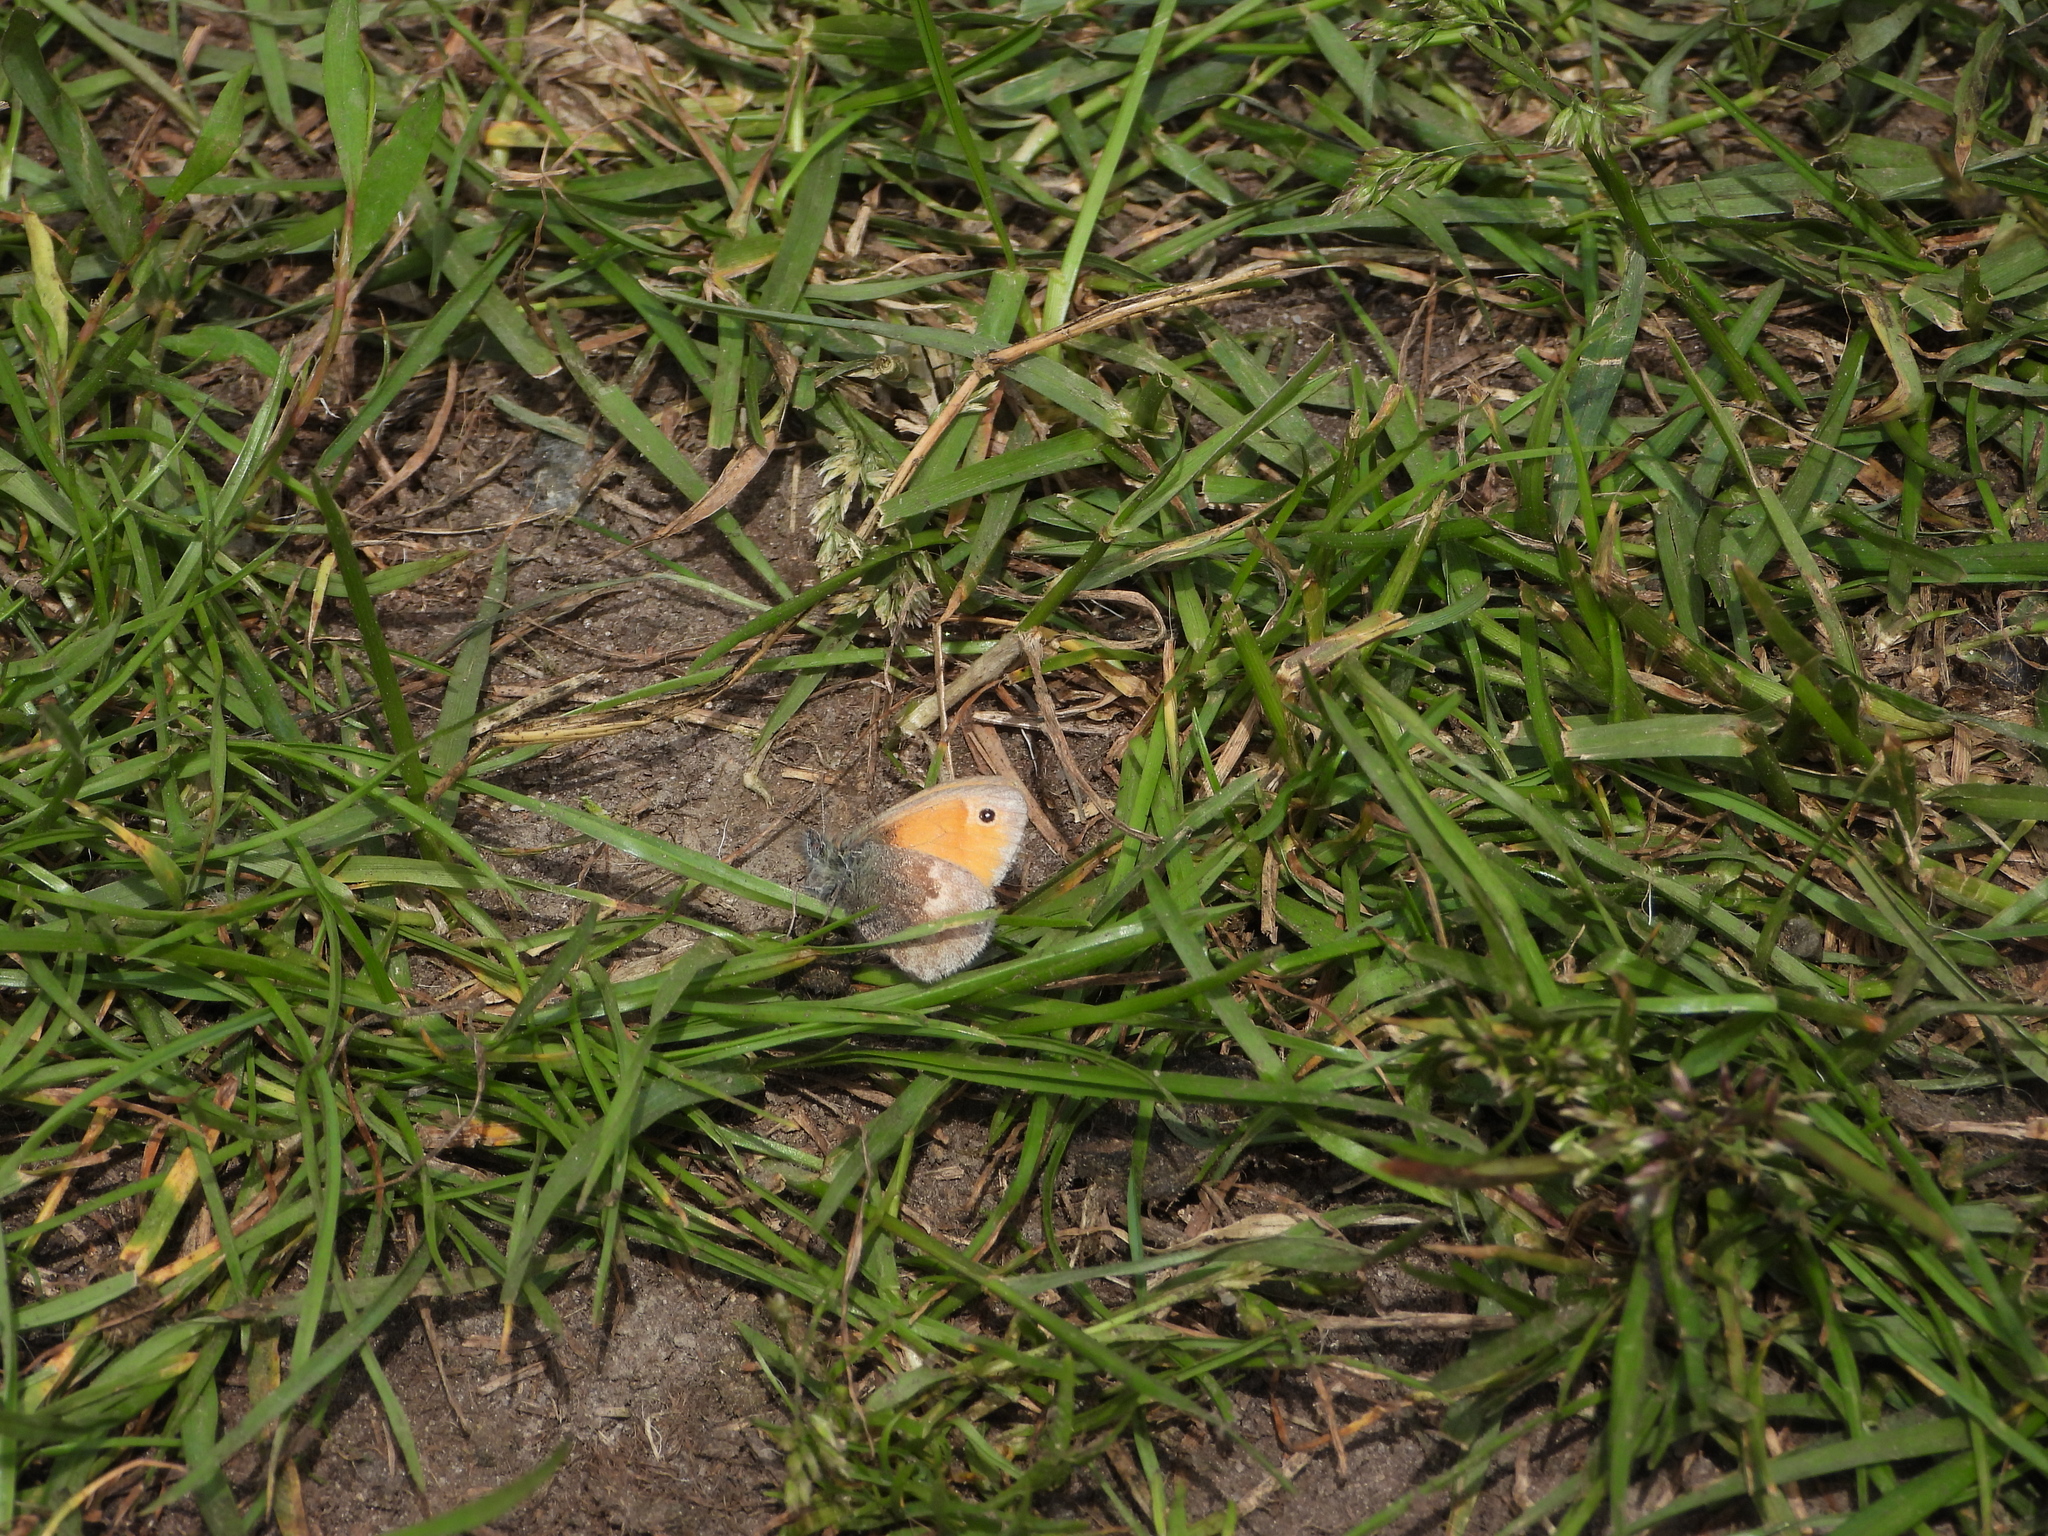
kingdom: Animalia
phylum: Arthropoda
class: Insecta
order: Lepidoptera
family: Nymphalidae
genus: Coenonympha
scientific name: Coenonympha pamphilus
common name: Small heath
